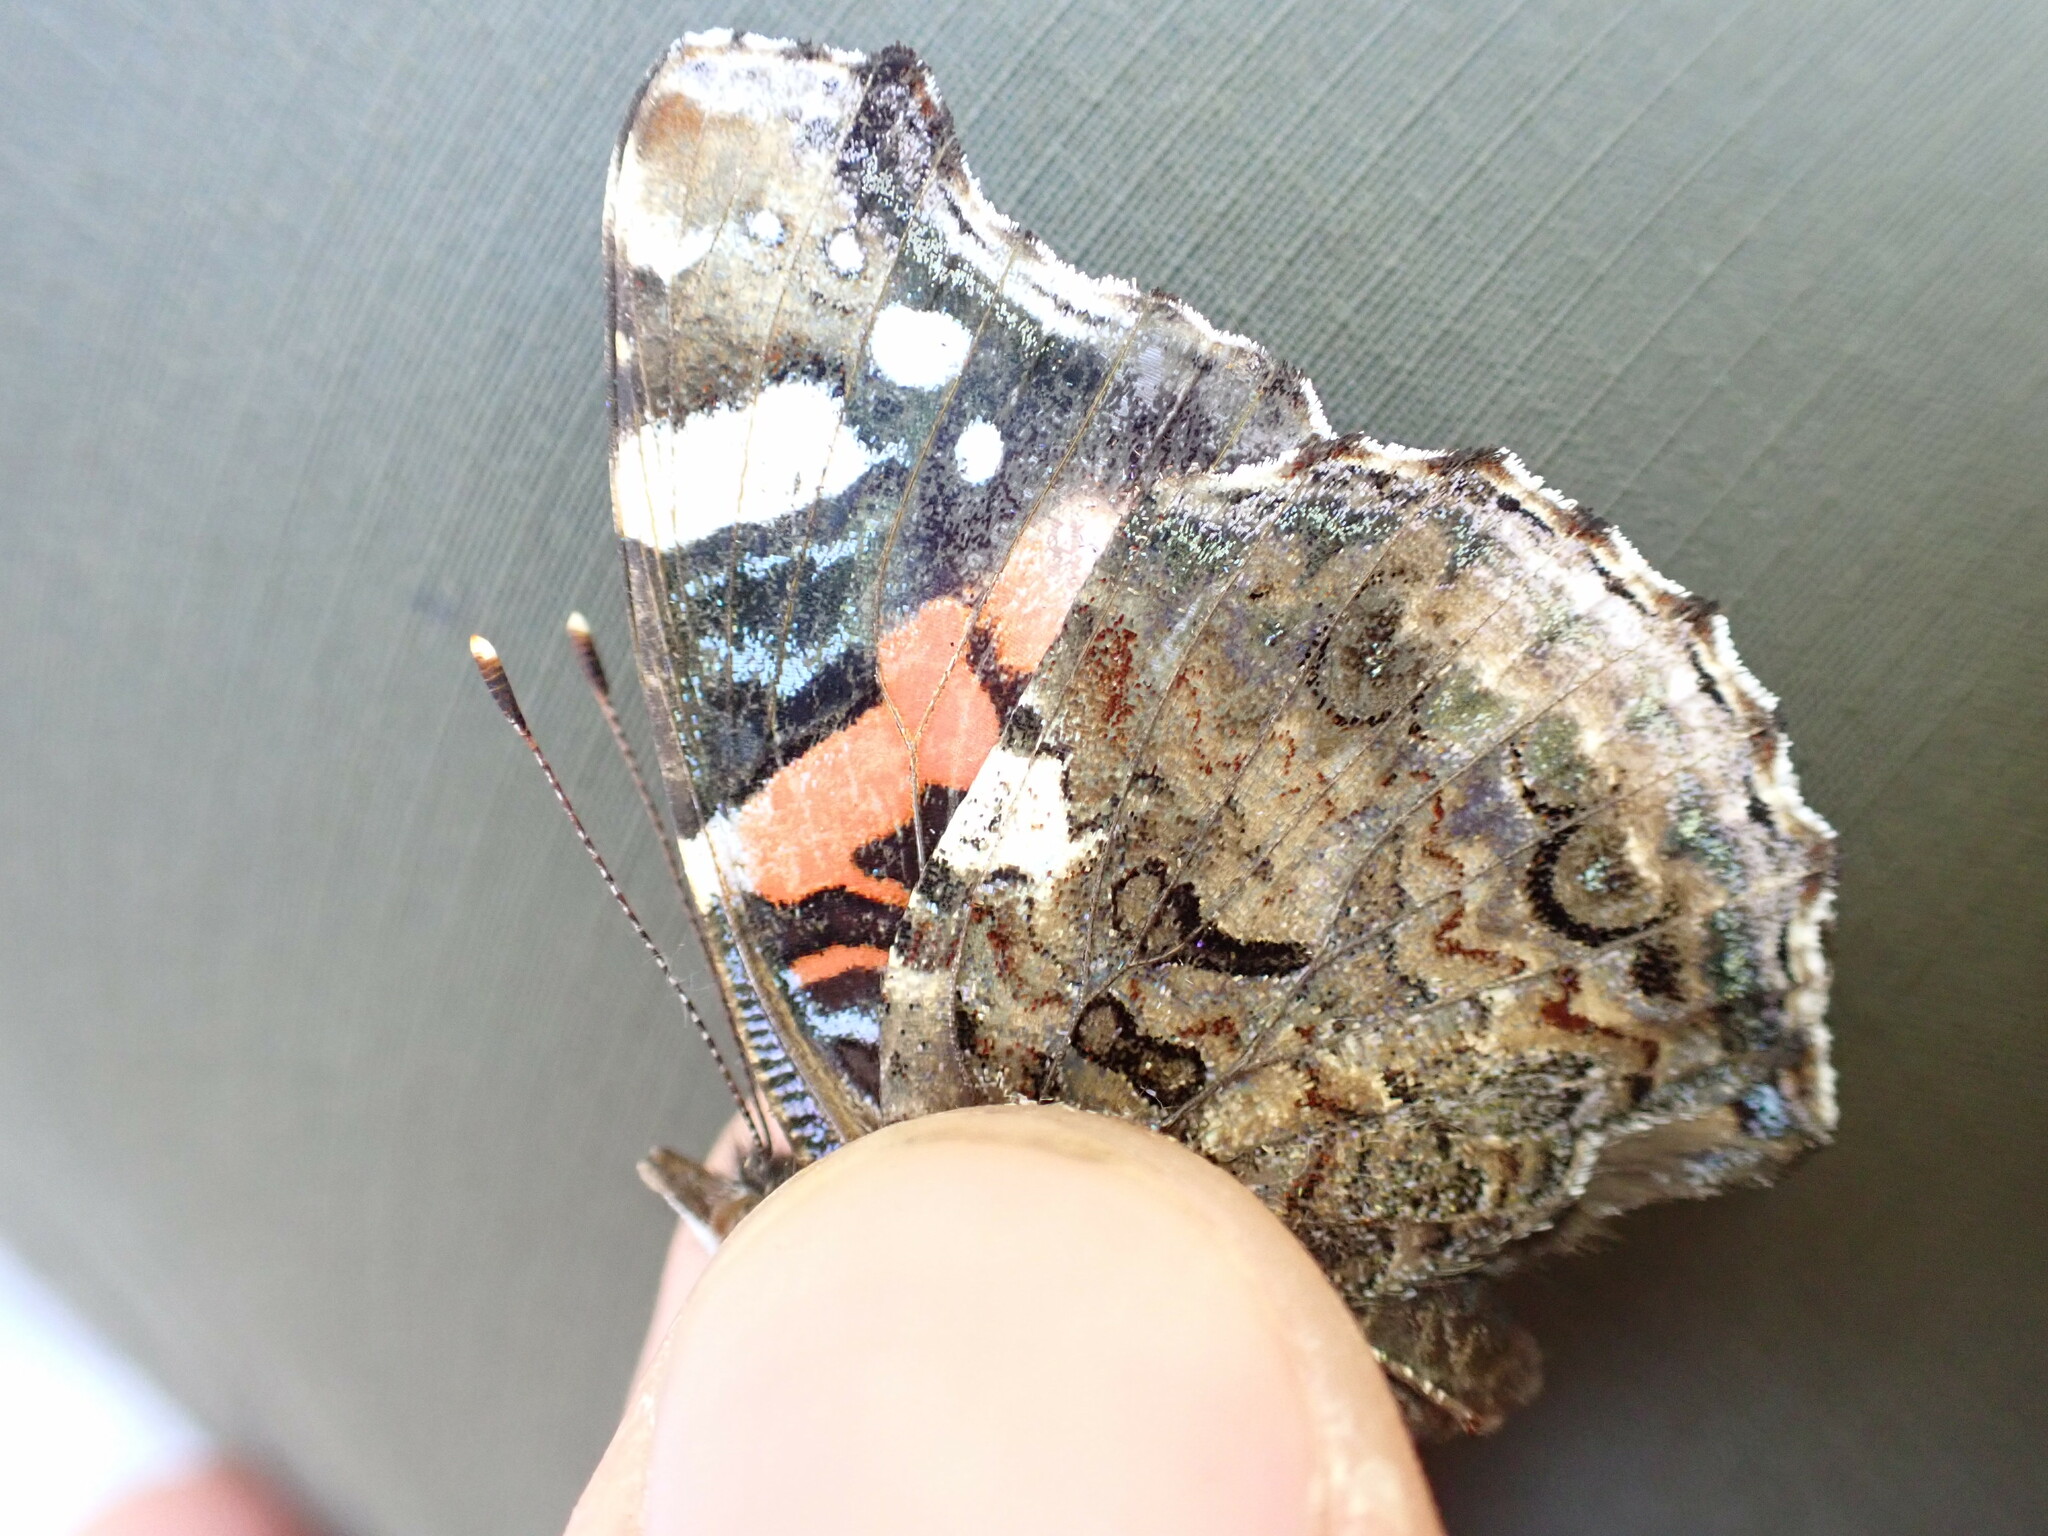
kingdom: Animalia
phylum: Arthropoda
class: Insecta
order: Lepidoptera
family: Nymphalidae
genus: Vanessa
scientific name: Vanessa atalanta
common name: Red admiral
